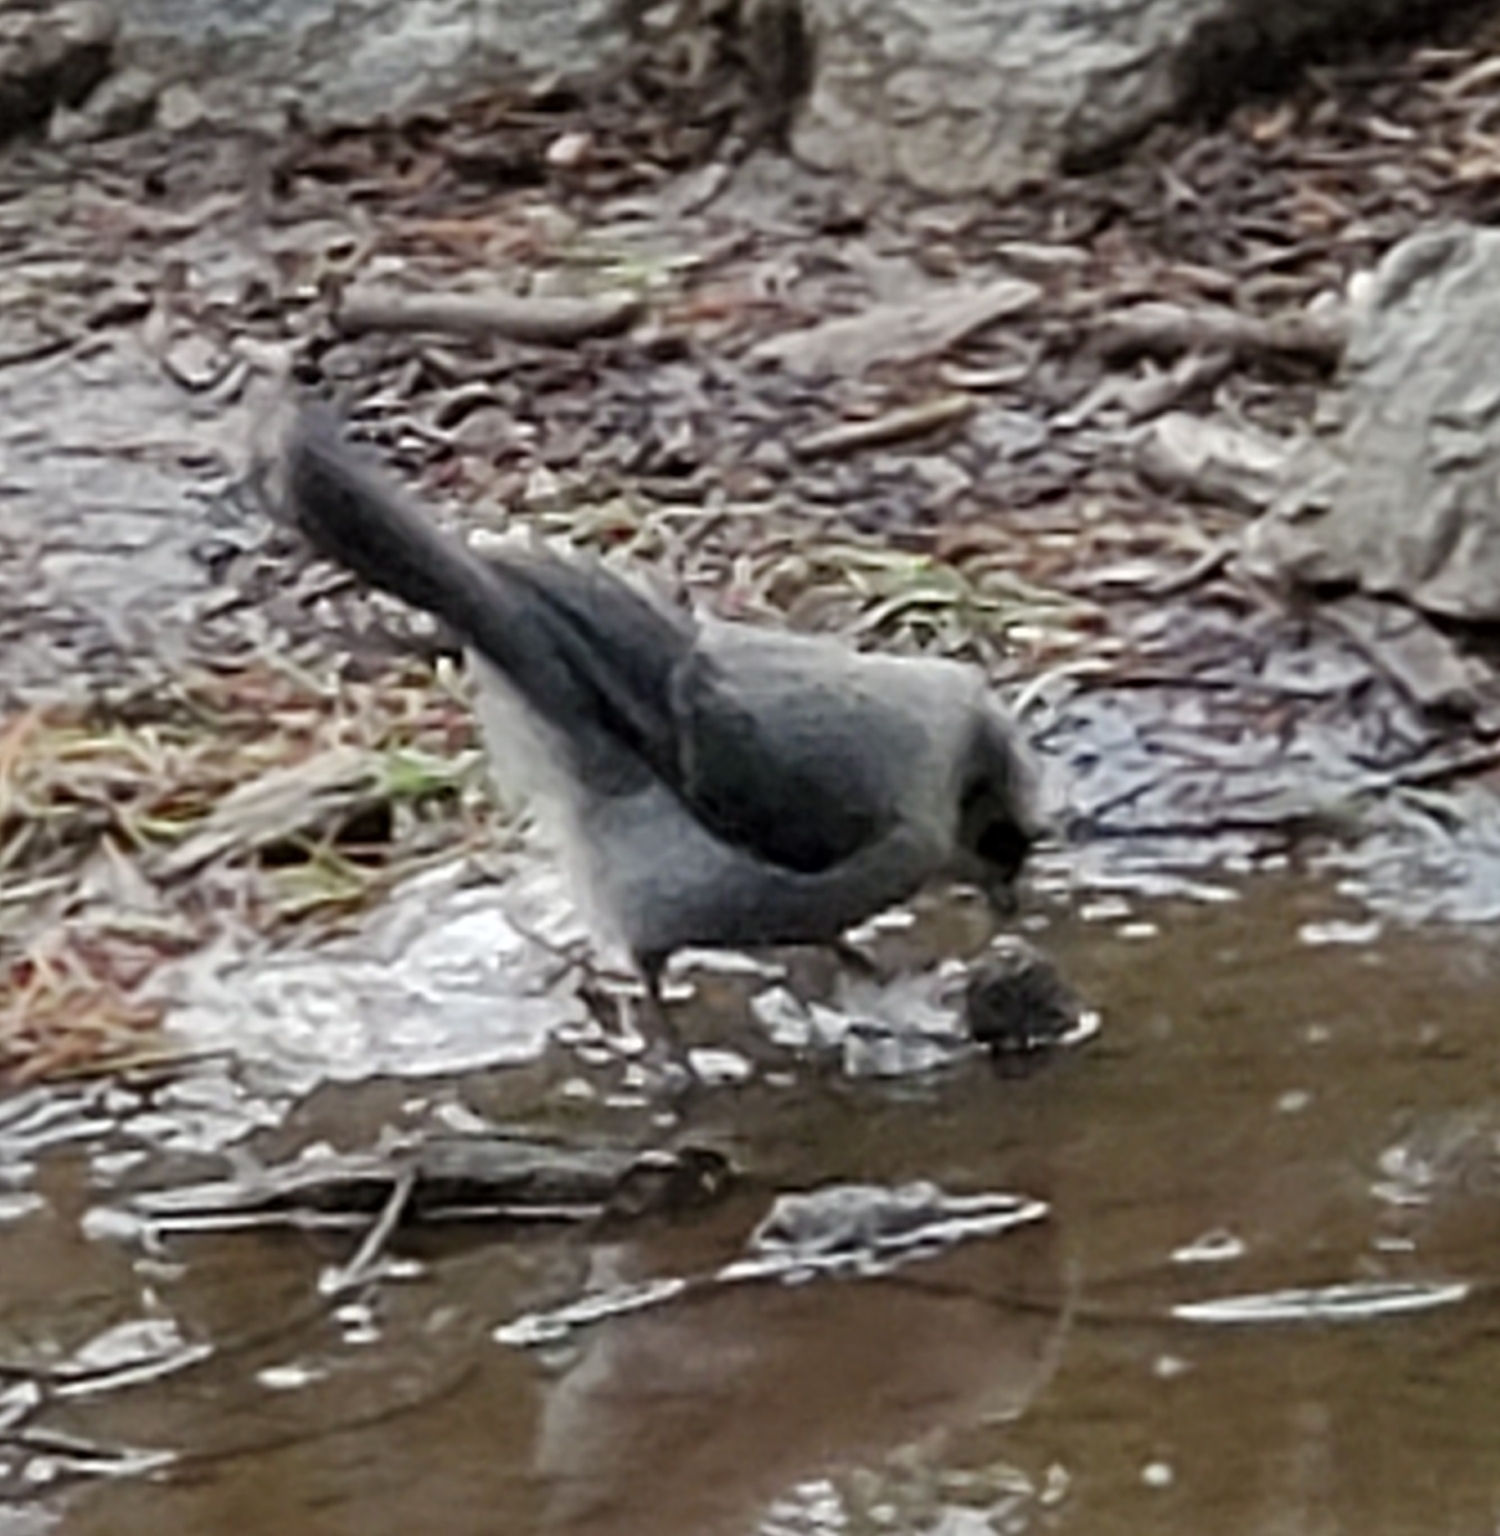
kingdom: Animalia
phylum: Chordata
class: Aves
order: Passeriformes
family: Corvidae
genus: Perisoreus
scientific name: Perisoreus canadensis
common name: Gray jay
